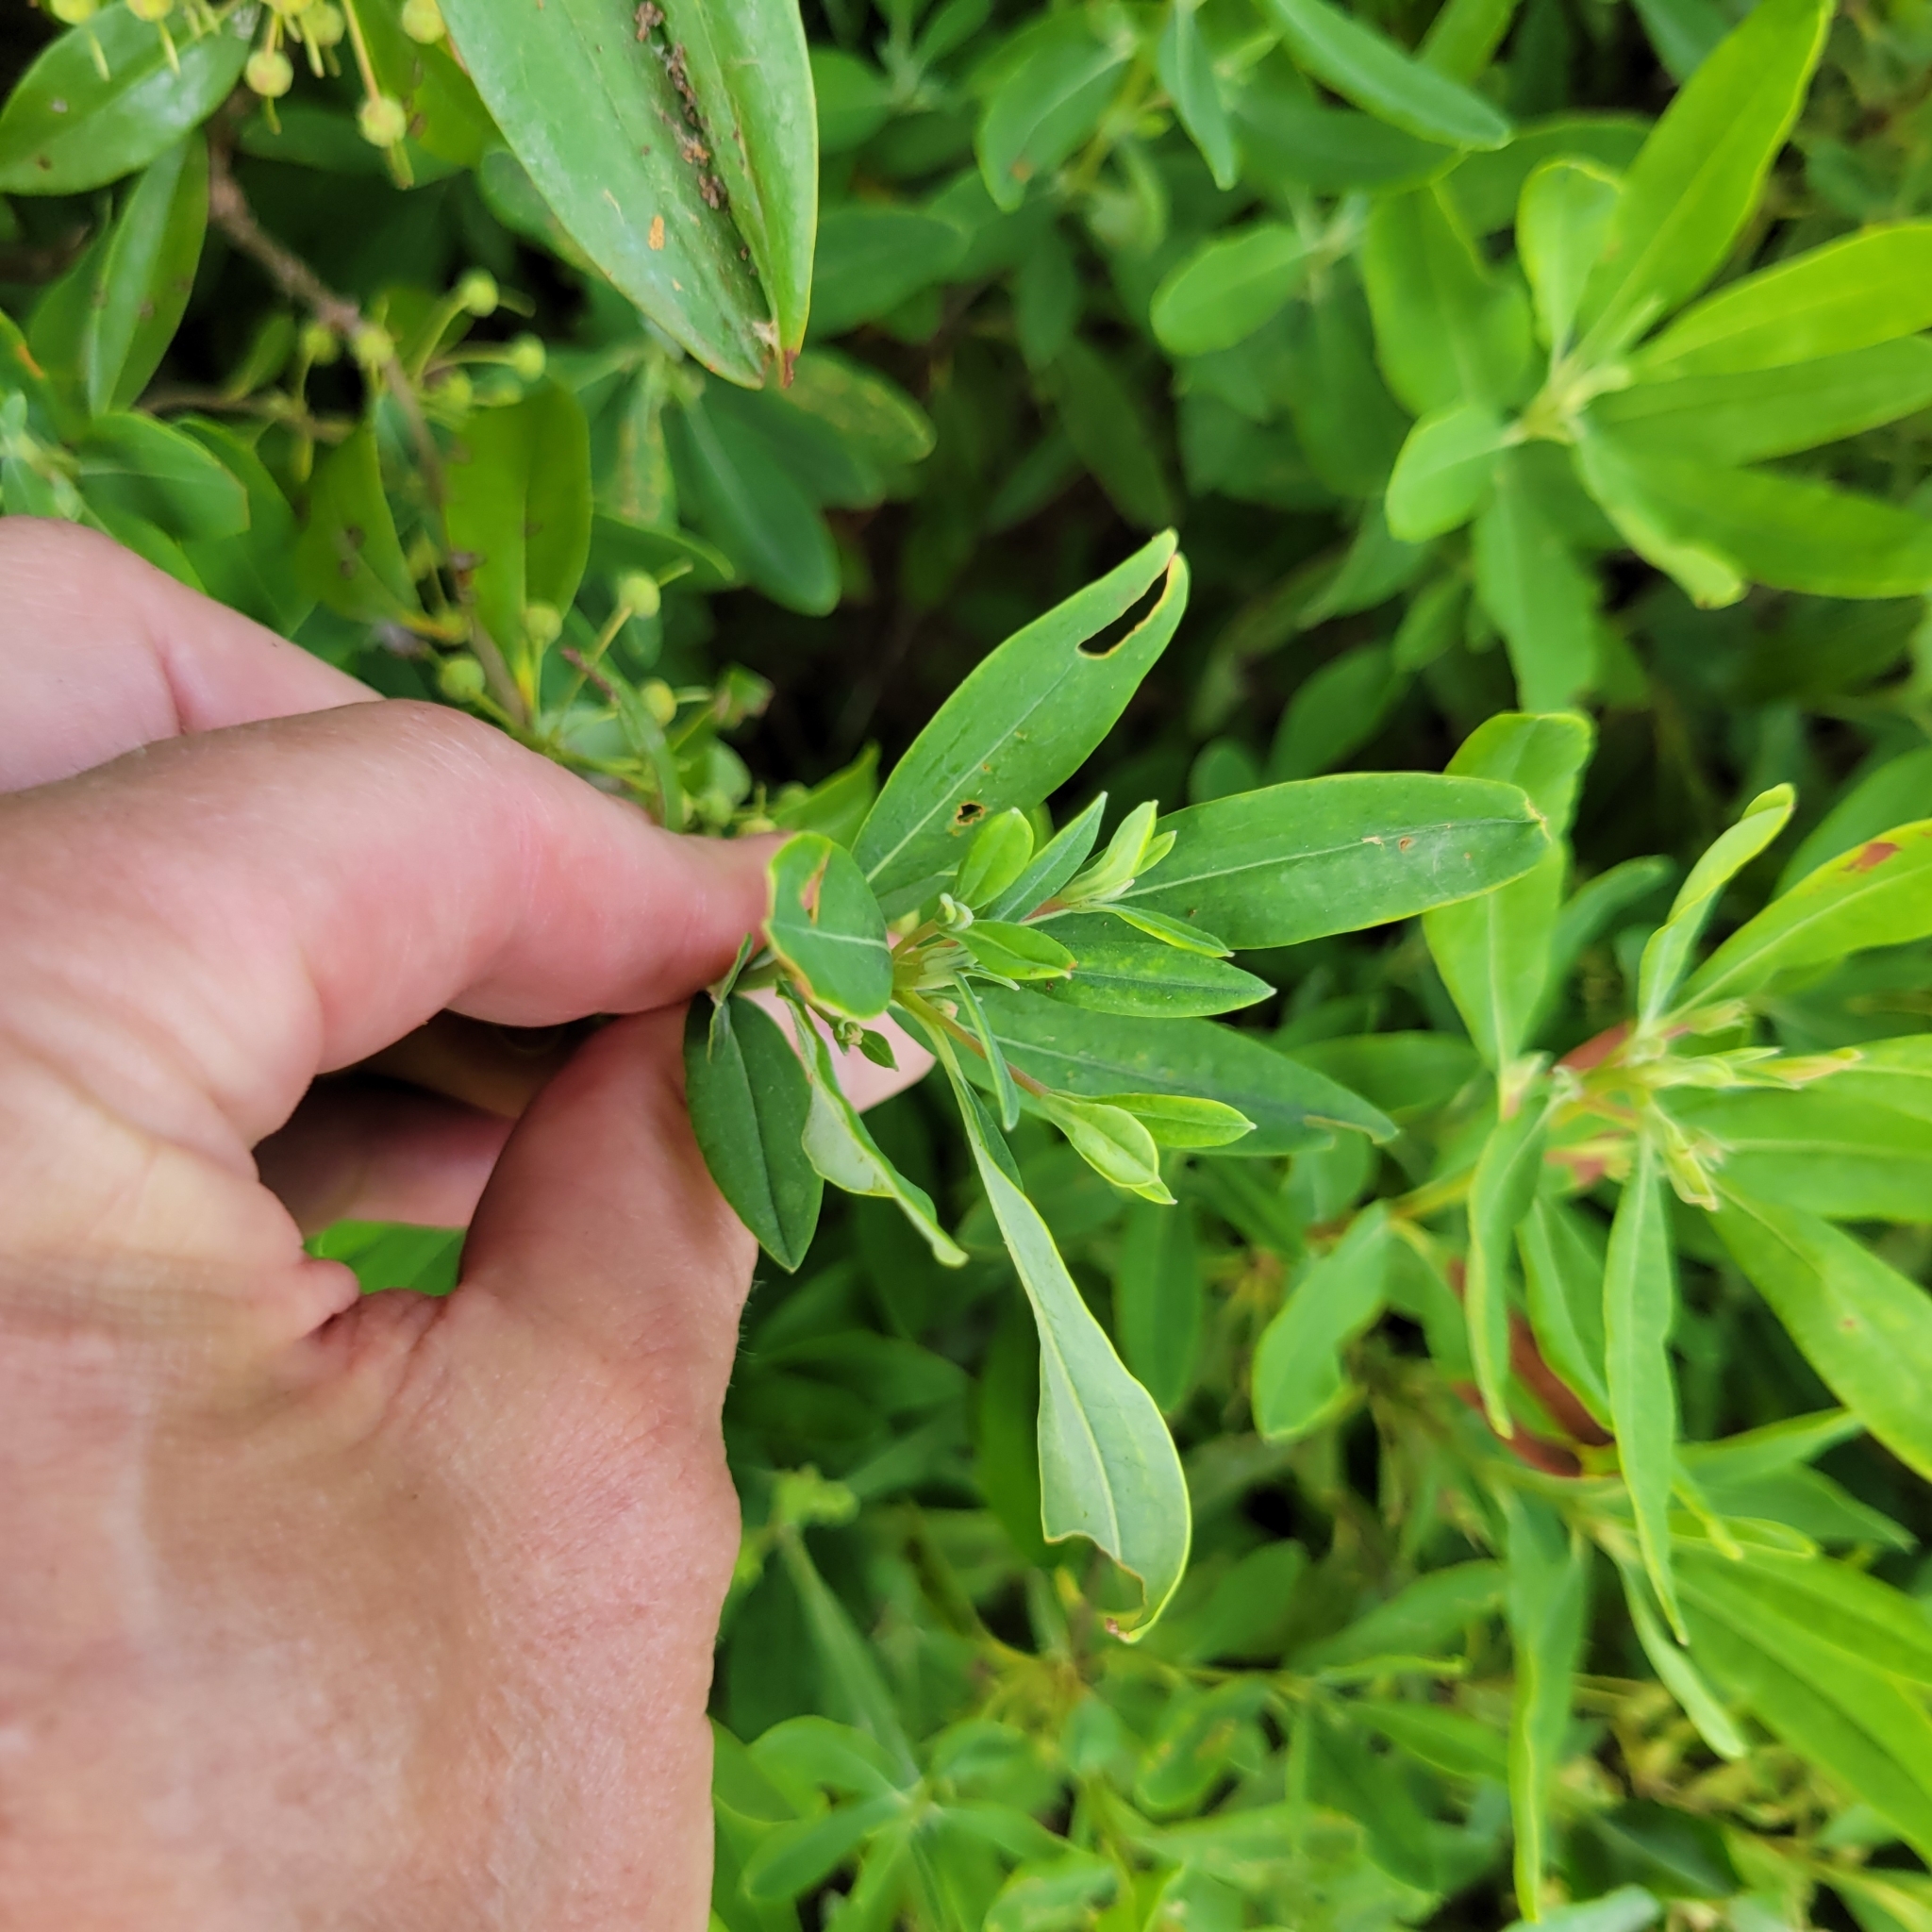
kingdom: Plantae
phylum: Tracheophyta
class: Magnoliopsida
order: Ericales
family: Ericaceae
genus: Kalmia
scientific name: Kalmia angustifolia
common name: Sheep-laurel
